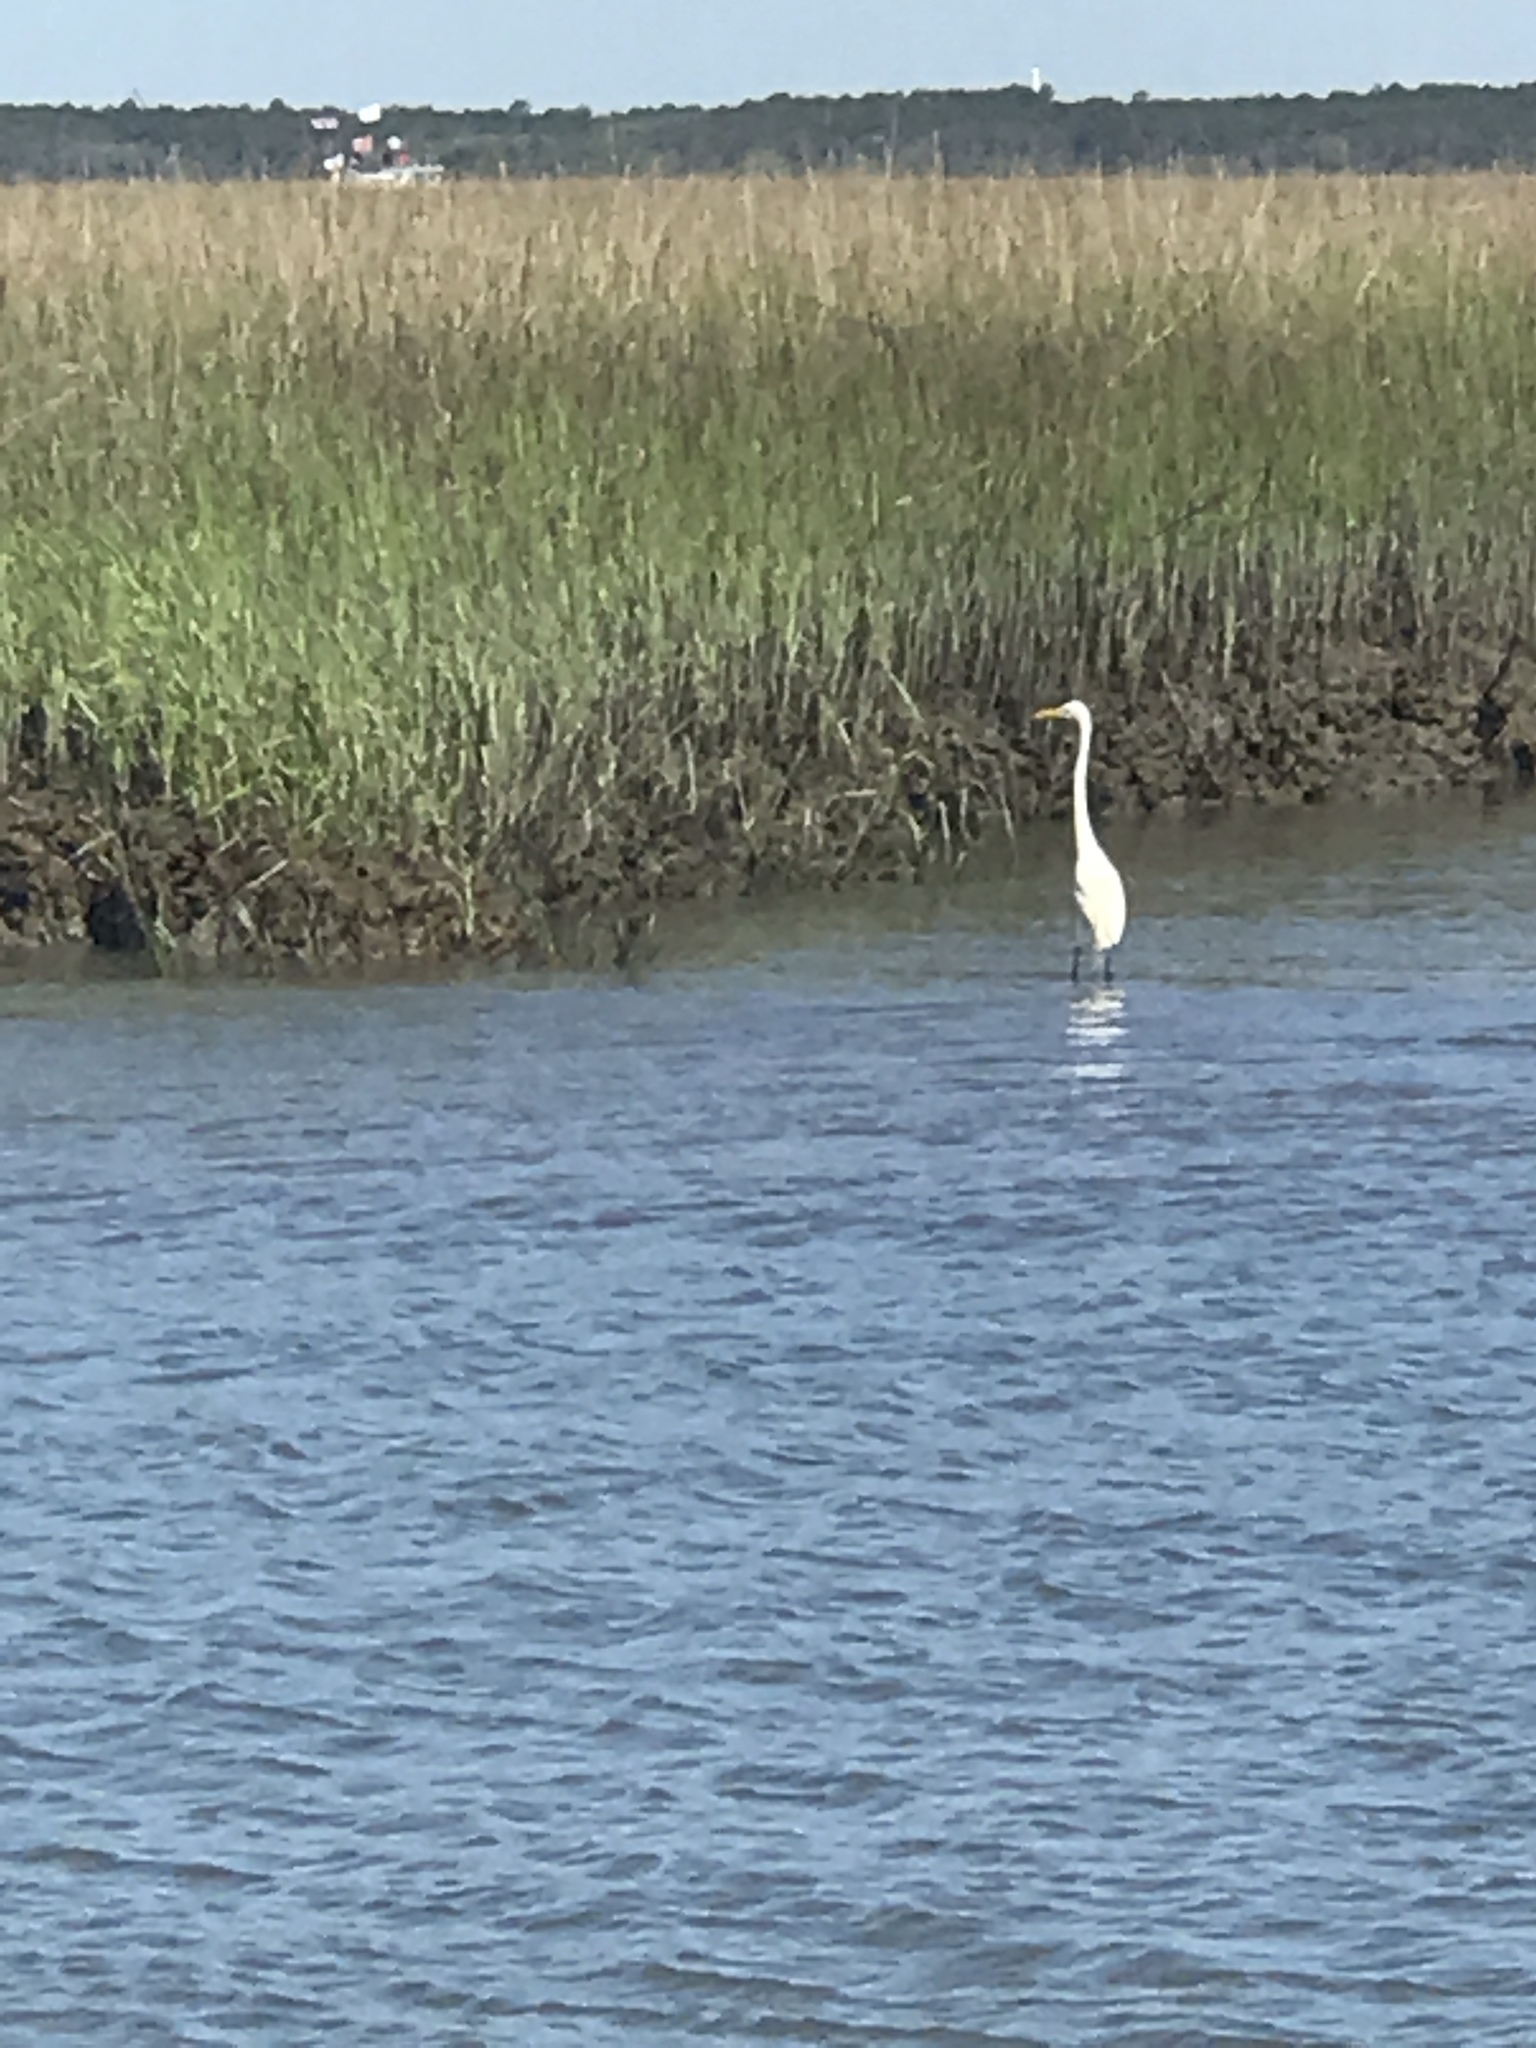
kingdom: Animalia
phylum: Chordata
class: Aves
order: Pelecaniformes
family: Ardeidae
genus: Ardea
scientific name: Ardea alba
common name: Great egret
